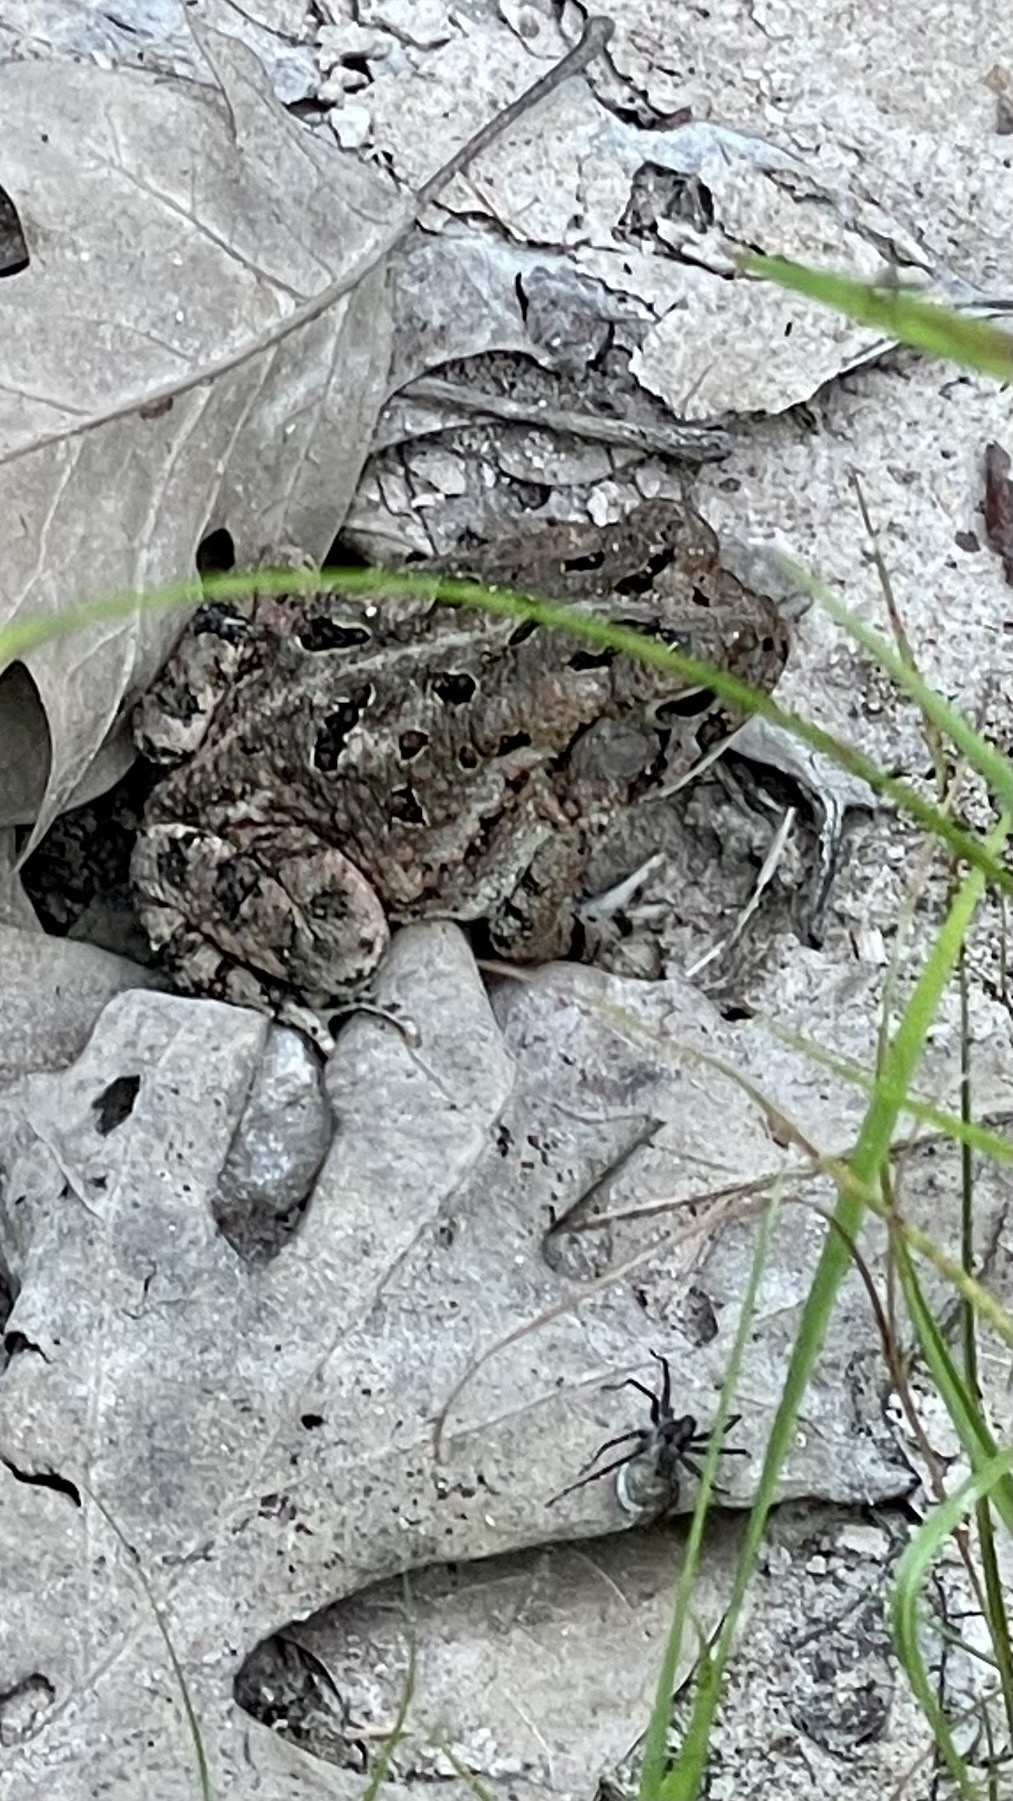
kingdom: Animalia
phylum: Chordata
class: Amphibia
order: Anura
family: Bufonidae
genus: Anaxyrus
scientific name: Anaxyrus fowleri
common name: Fowler's toad
